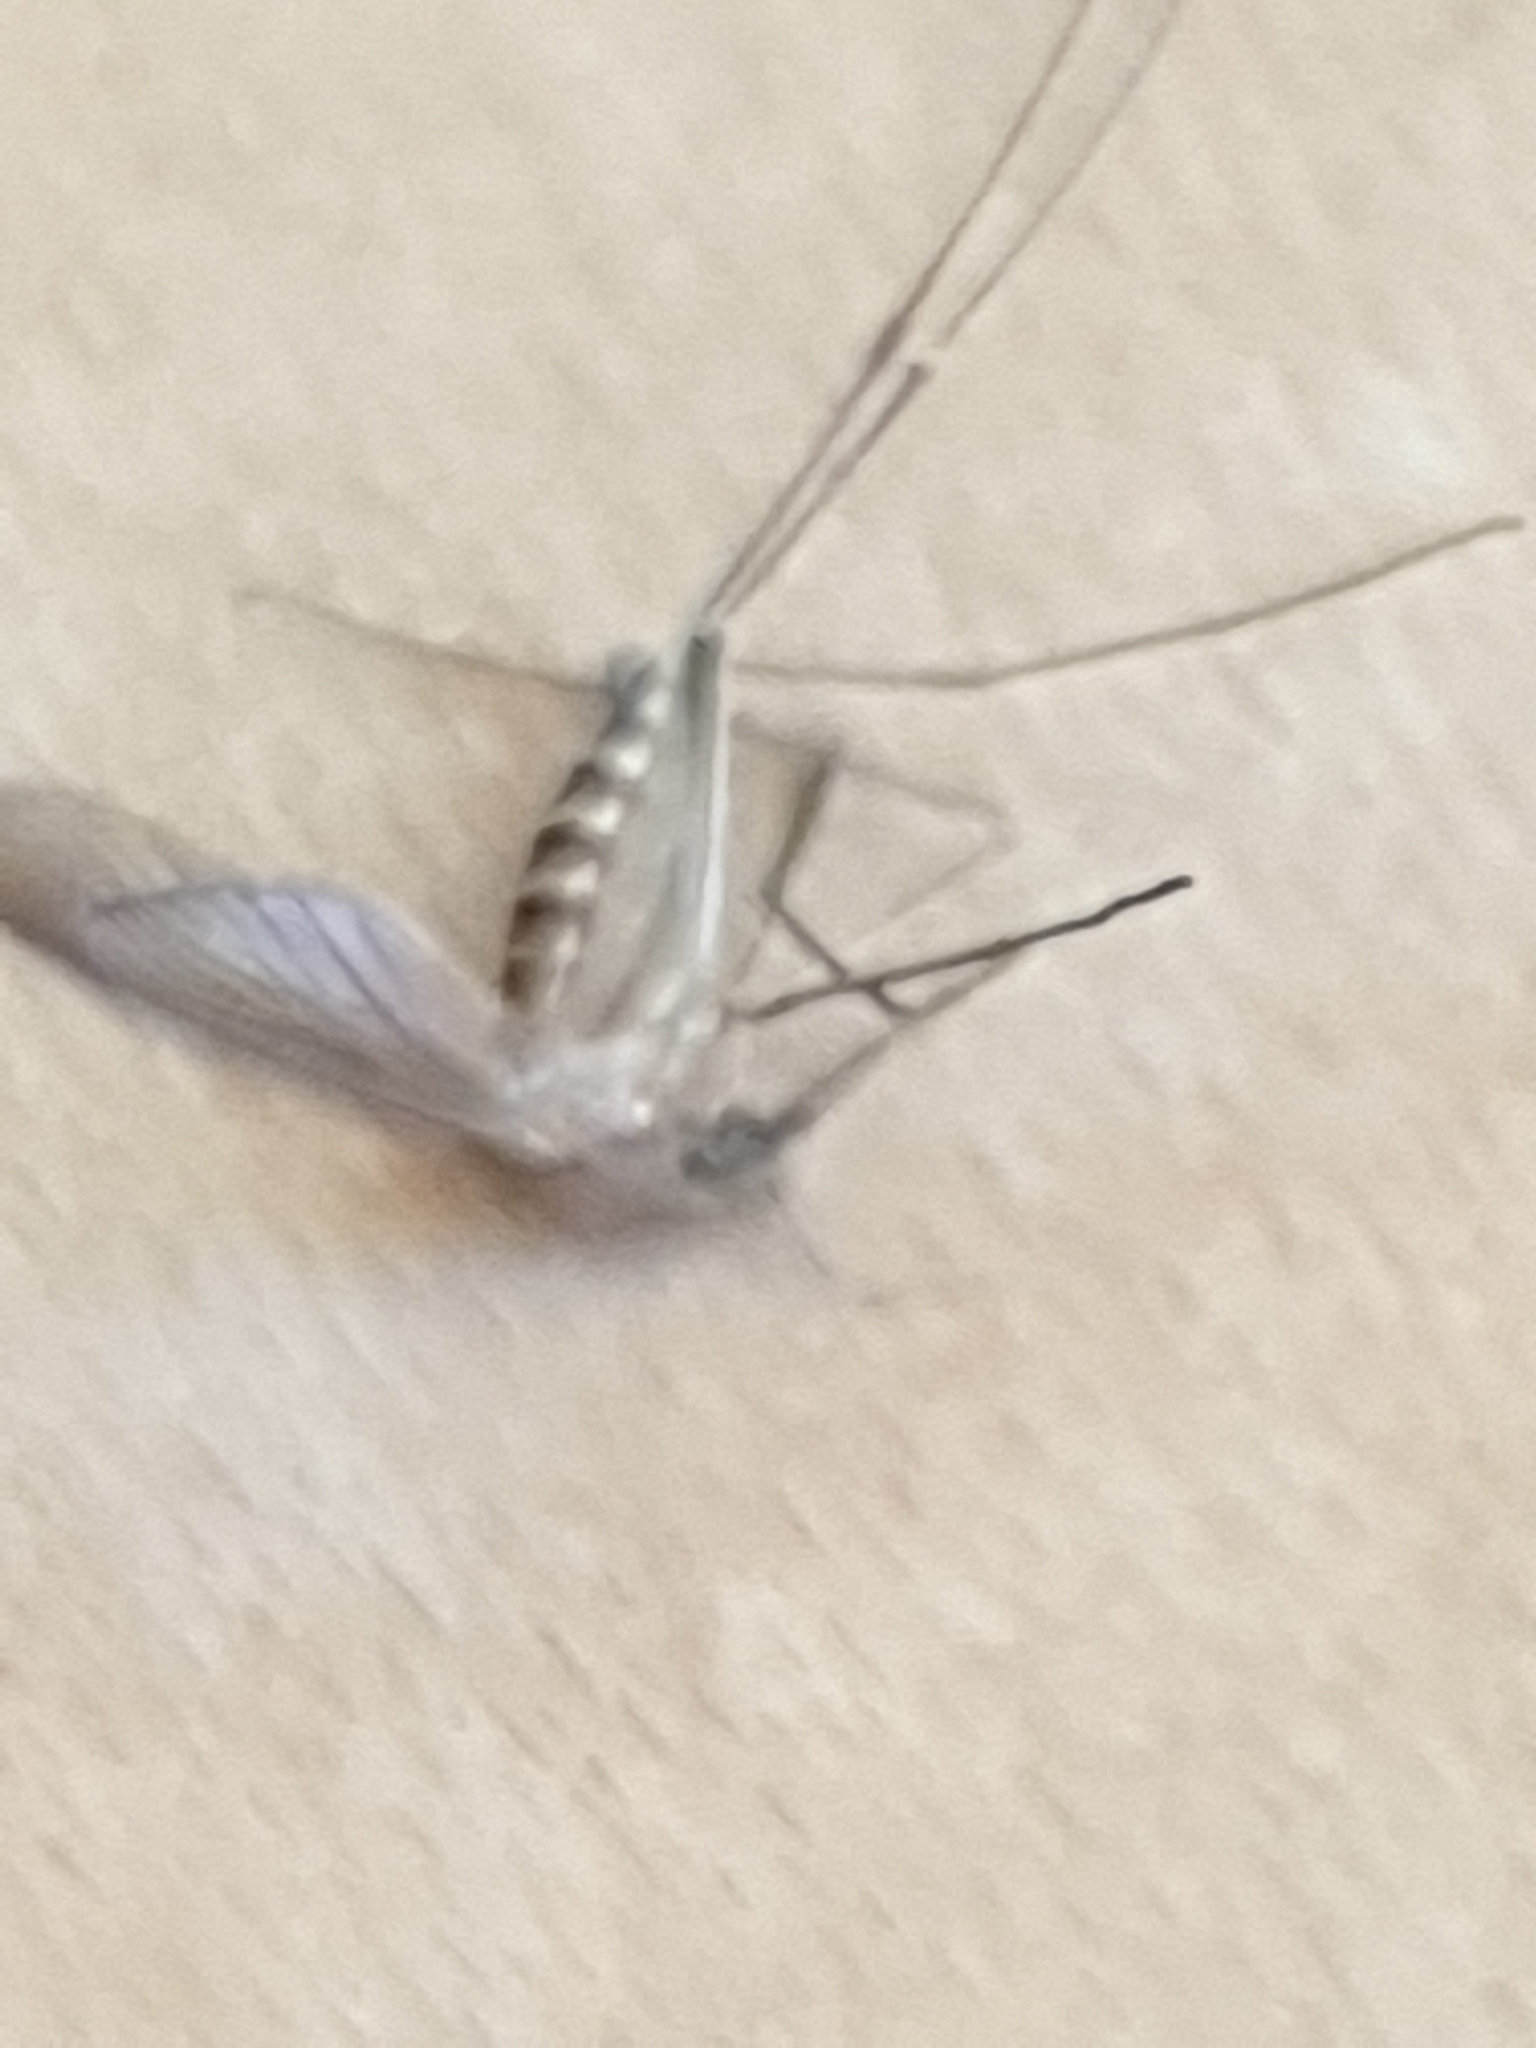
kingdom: Animalia
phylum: Arthropoda
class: Insecta
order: Diptera
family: Culicidae
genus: Culex
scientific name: Culex pipiens
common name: Mosquito
